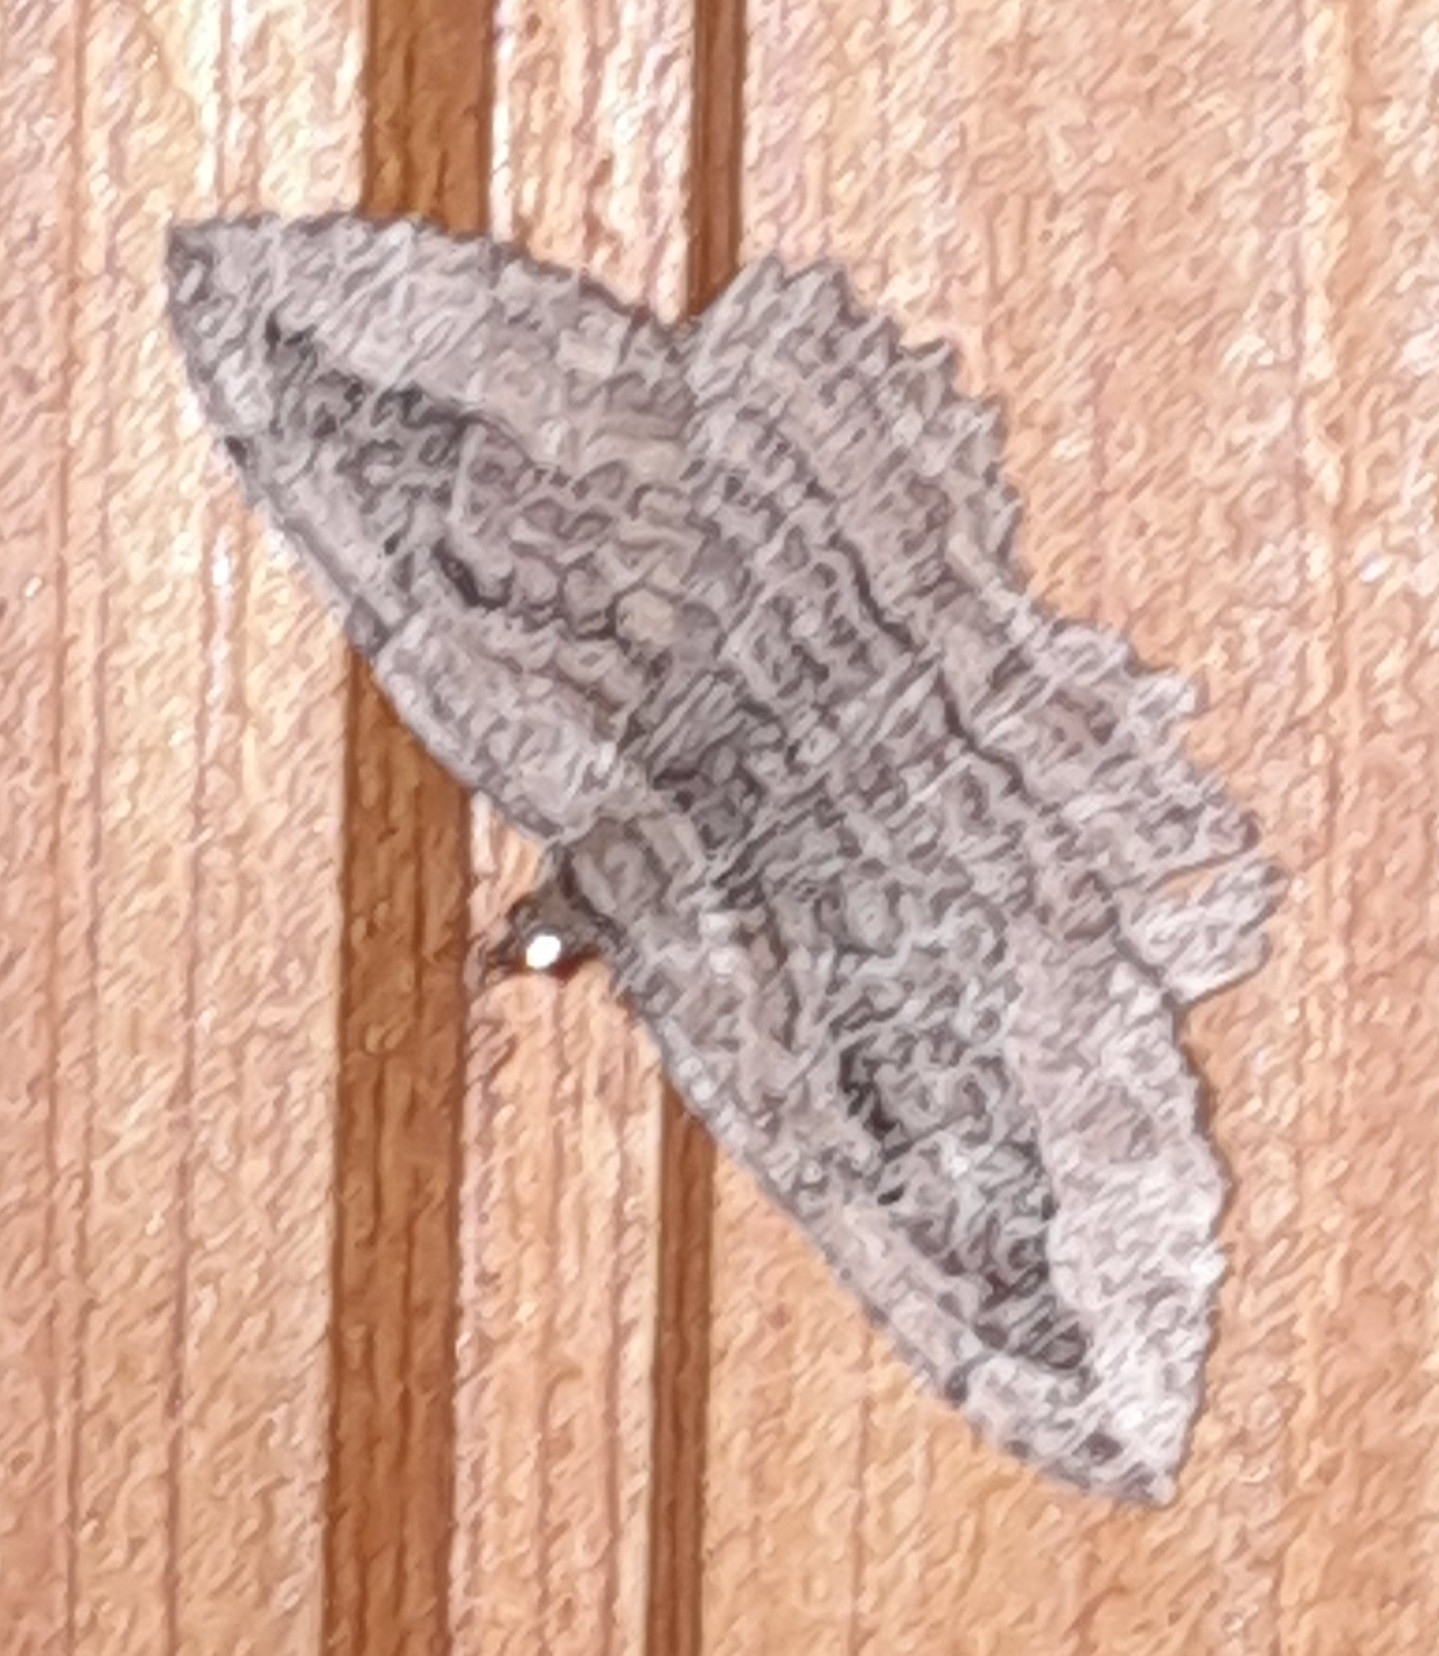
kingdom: Animalia
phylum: Arthropoda
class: Insecta
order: Lepidoptera
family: Geometridae
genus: Philereme
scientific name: Philereme transversata
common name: Dark umber
